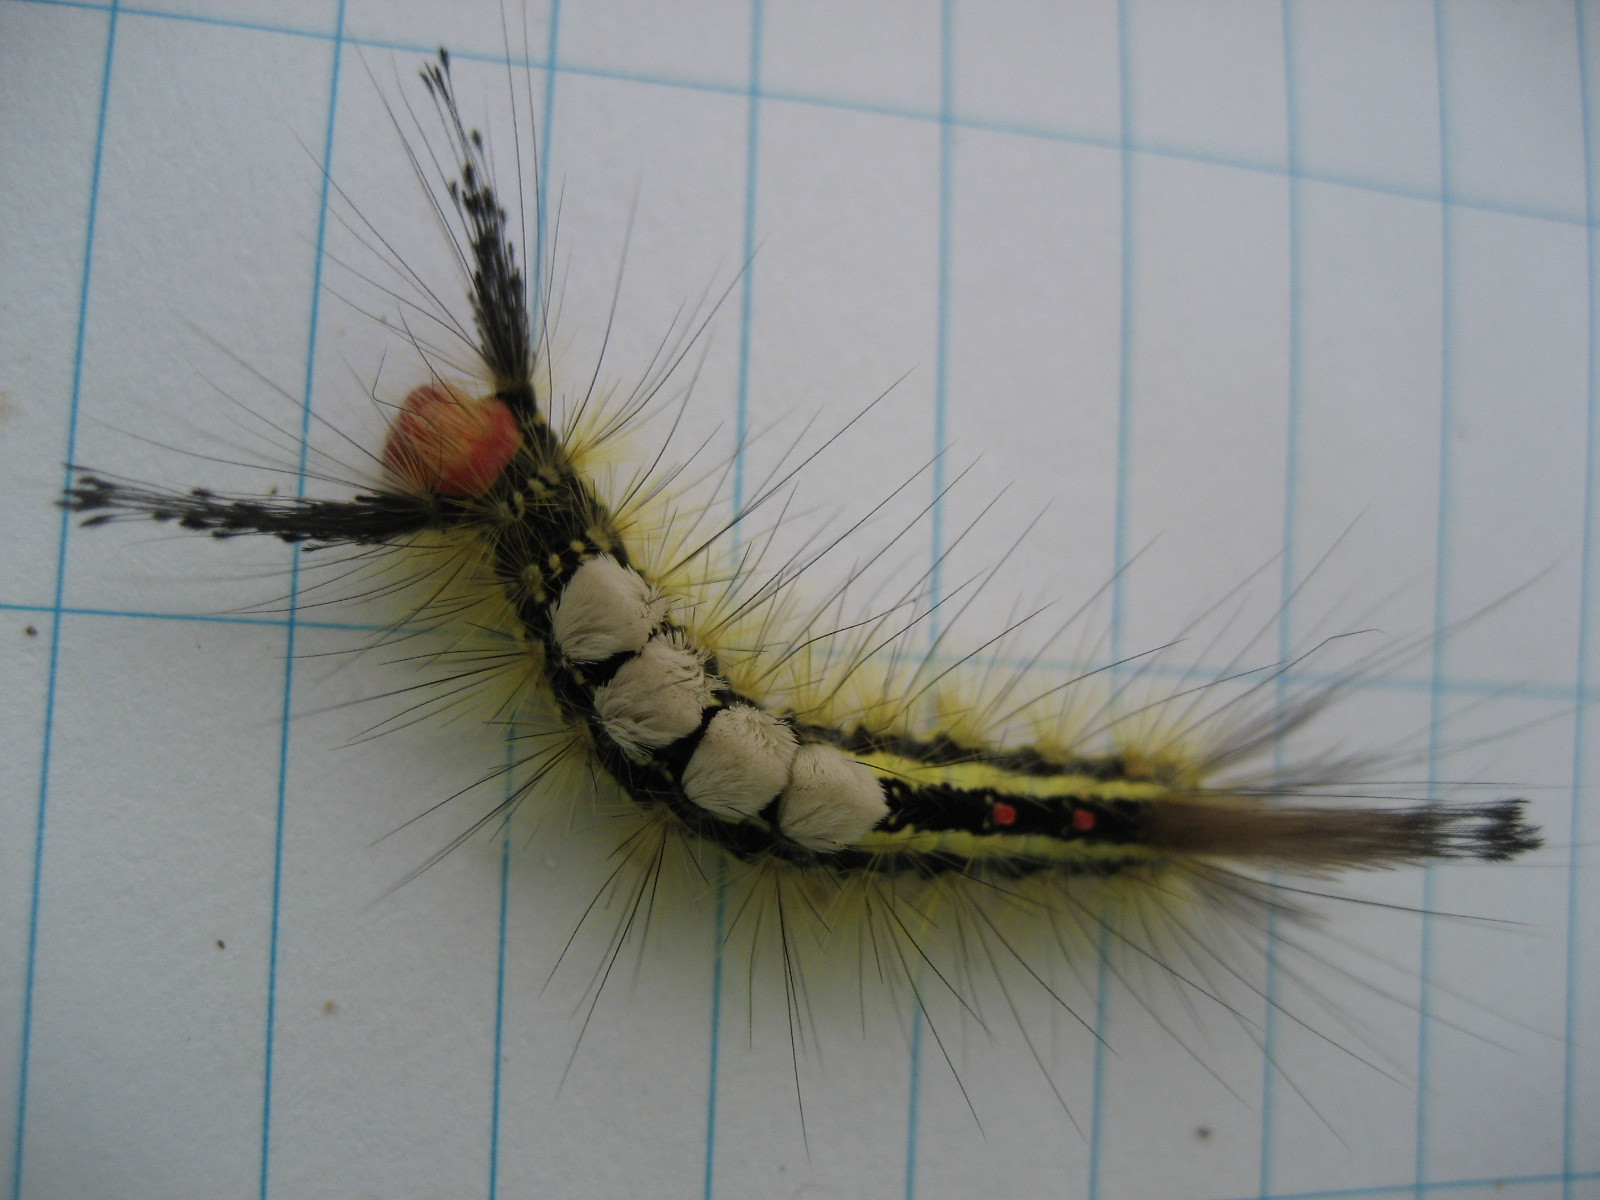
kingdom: Animalia
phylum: Arthropoda
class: Insecta
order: Lepidoptera
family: Erebidae
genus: Orgyia
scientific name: Orgyia leucostigma
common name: White-marked tussock moth
